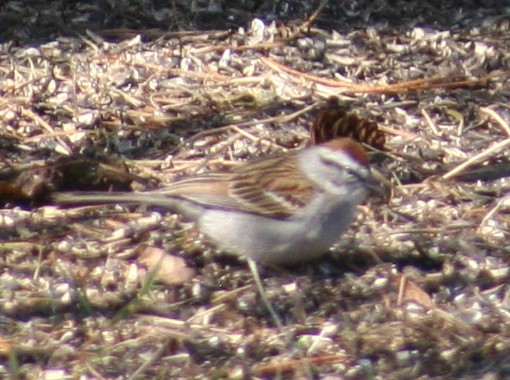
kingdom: Animalia
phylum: Chordata
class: Aves
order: Passeriformes
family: Passerellidae
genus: Spizella
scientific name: Spizella passerina
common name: Chipping sparrow
